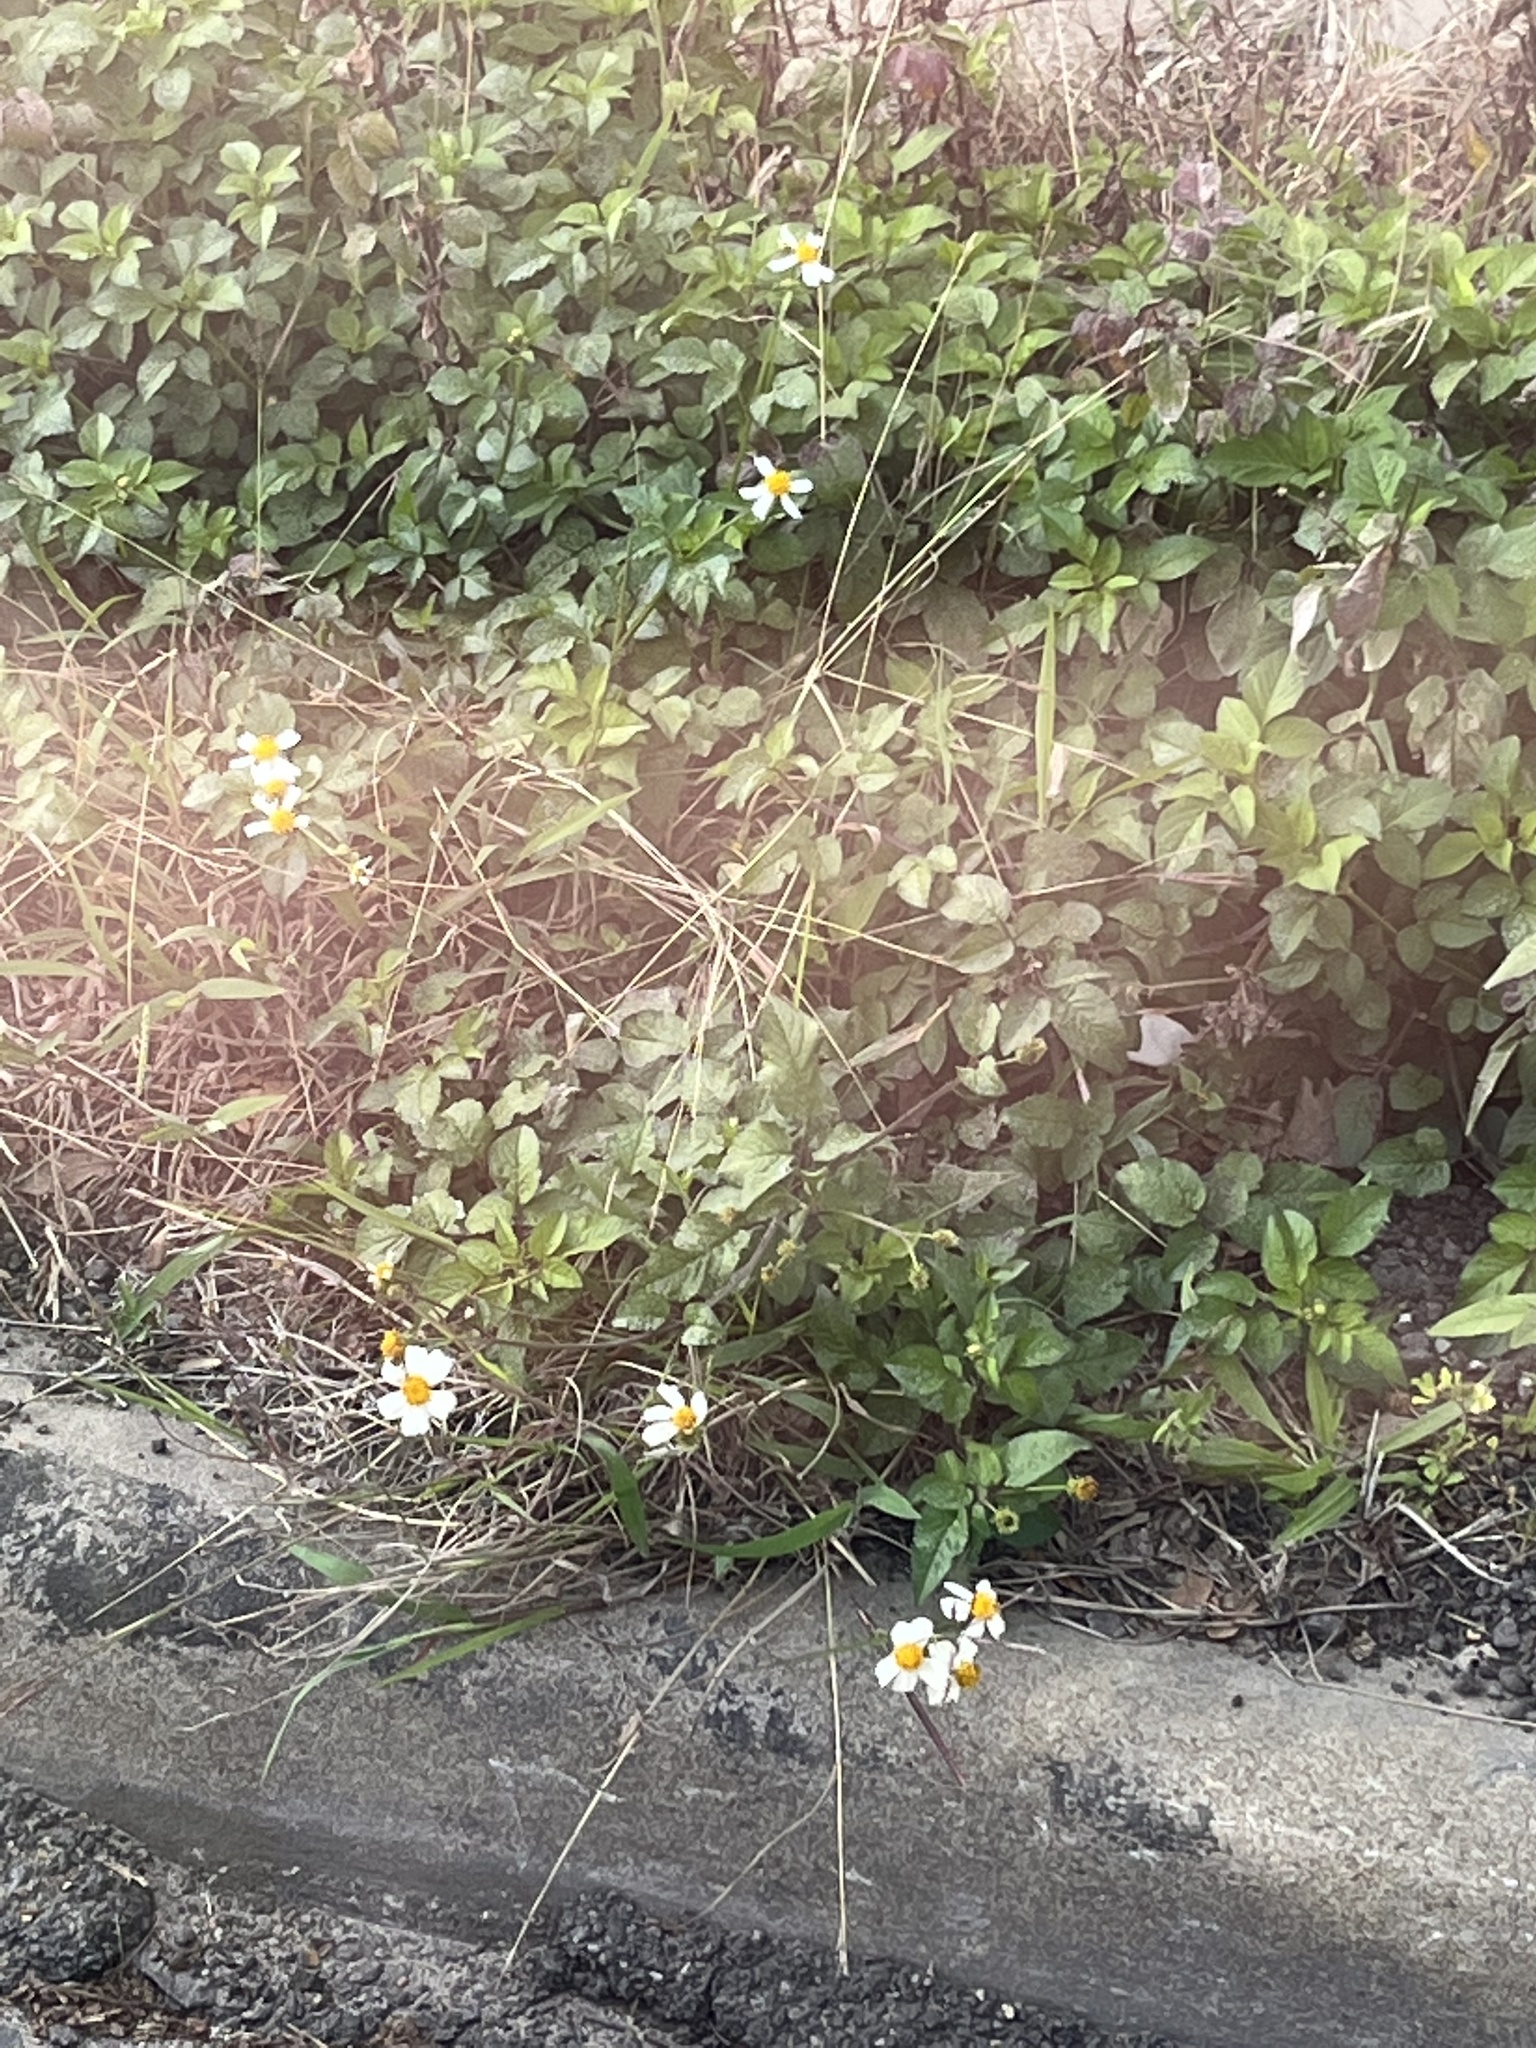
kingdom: Plantae
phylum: Tracheophyta
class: Magnoliopsida
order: Asterales
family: Asteraceae
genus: Bidens
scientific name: Bidens alba
